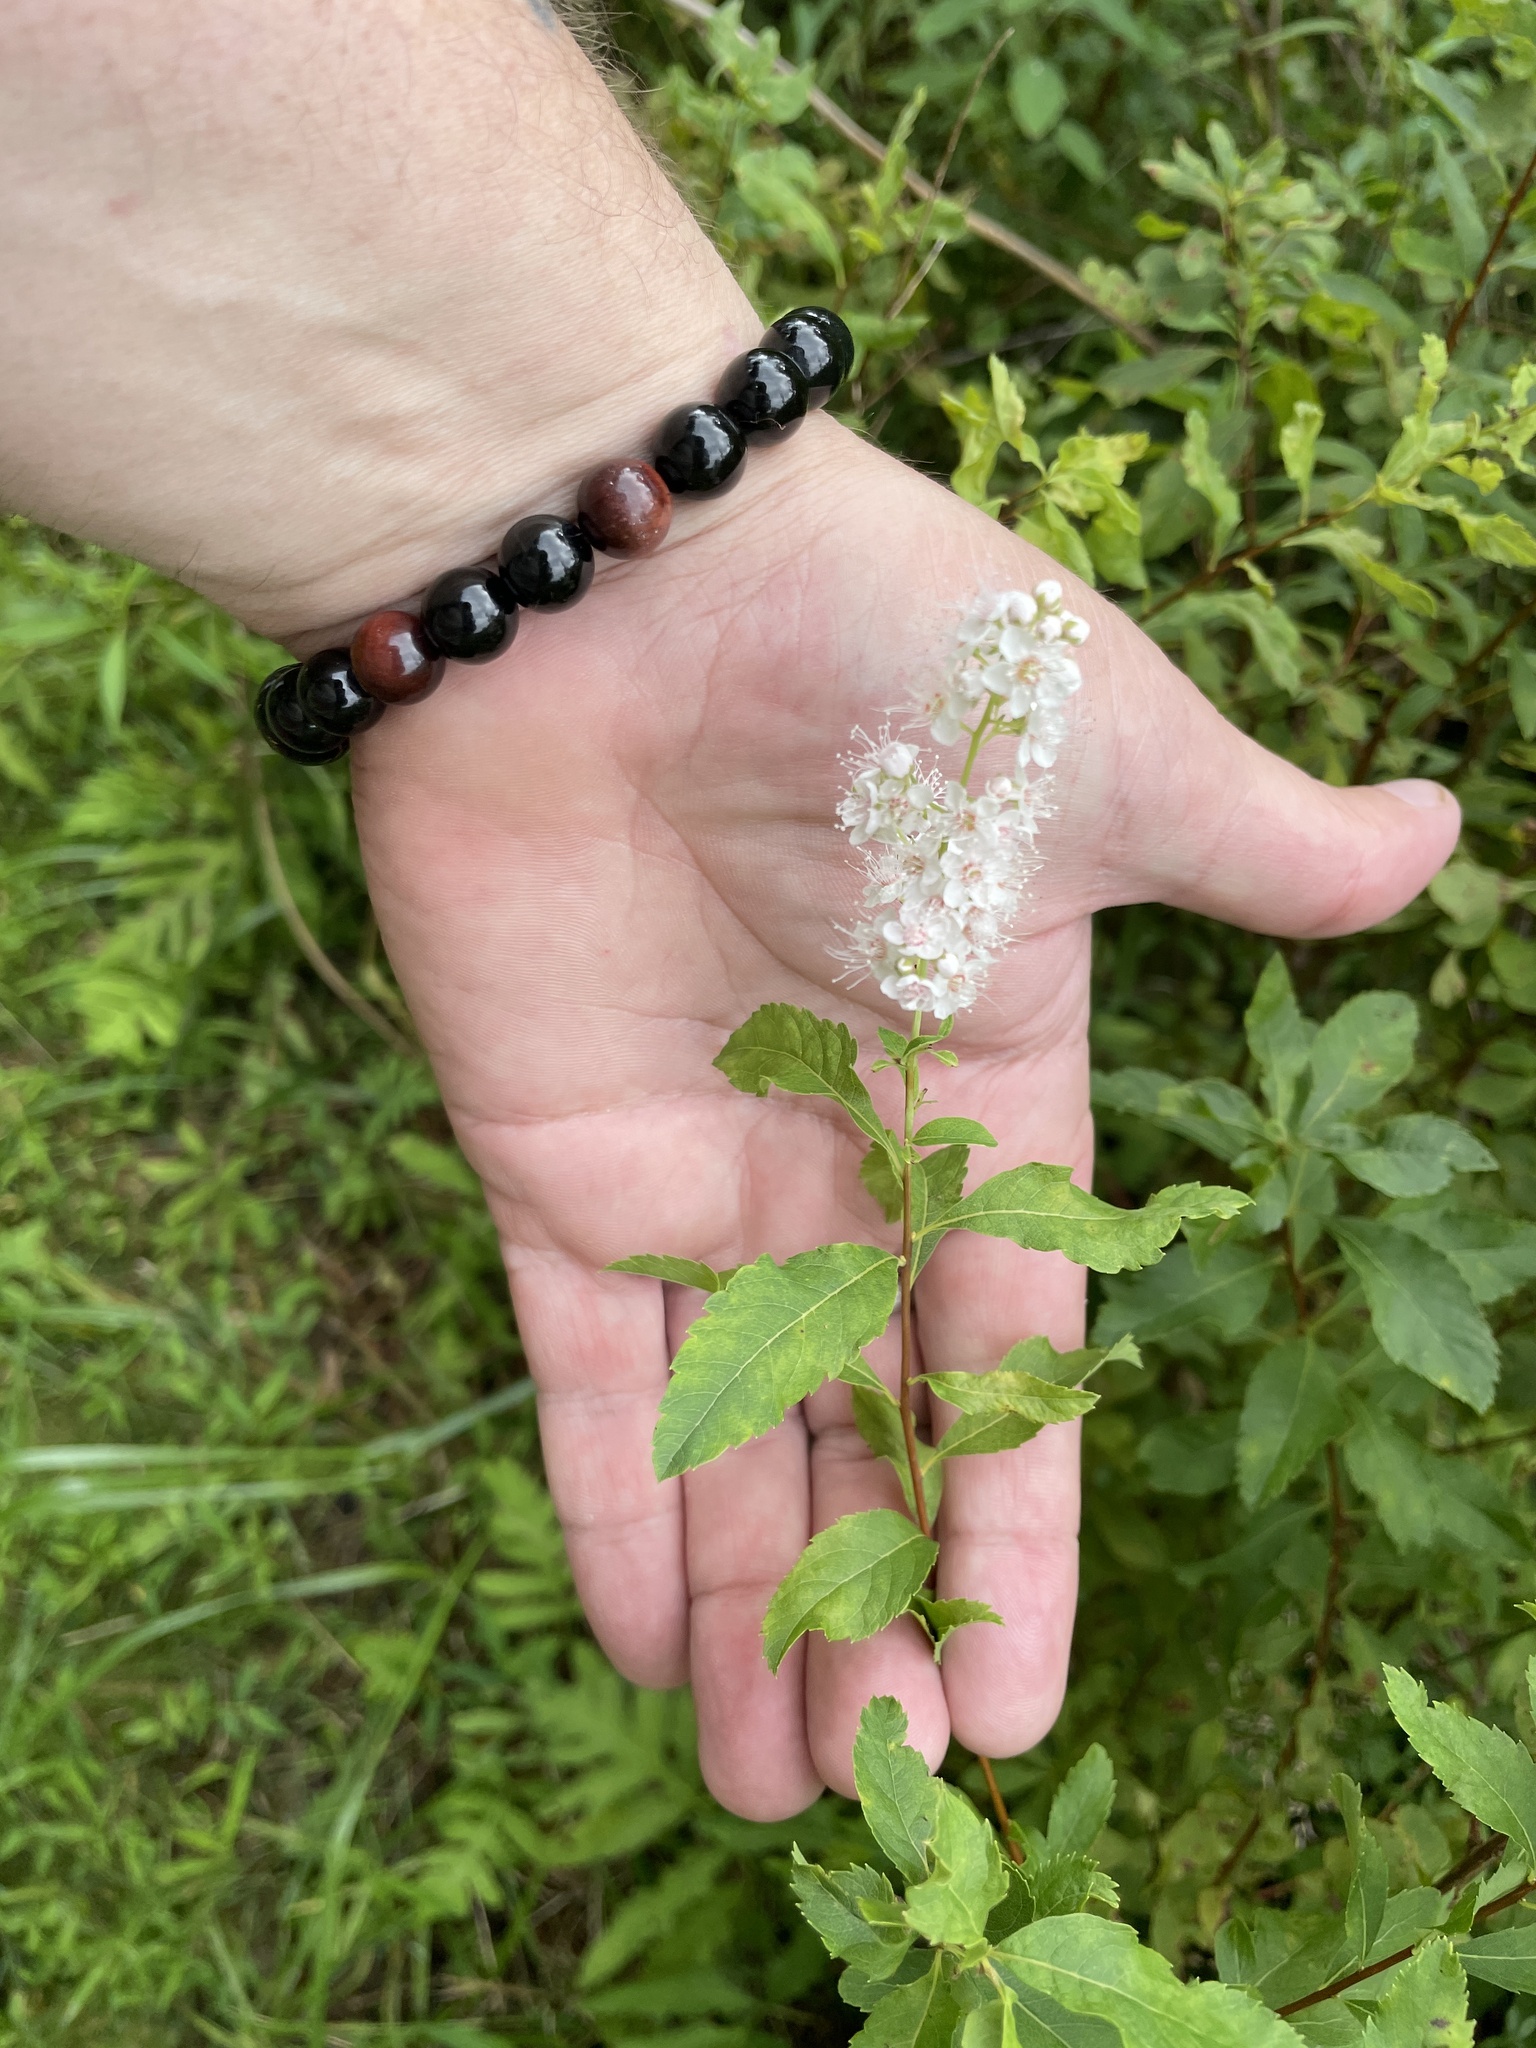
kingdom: Plantae
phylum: Tracheophyta
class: Magnoliopsida
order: Rosales
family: Rosaceae
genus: Spiraea
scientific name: Spiraea alba
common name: Pale bridewort
